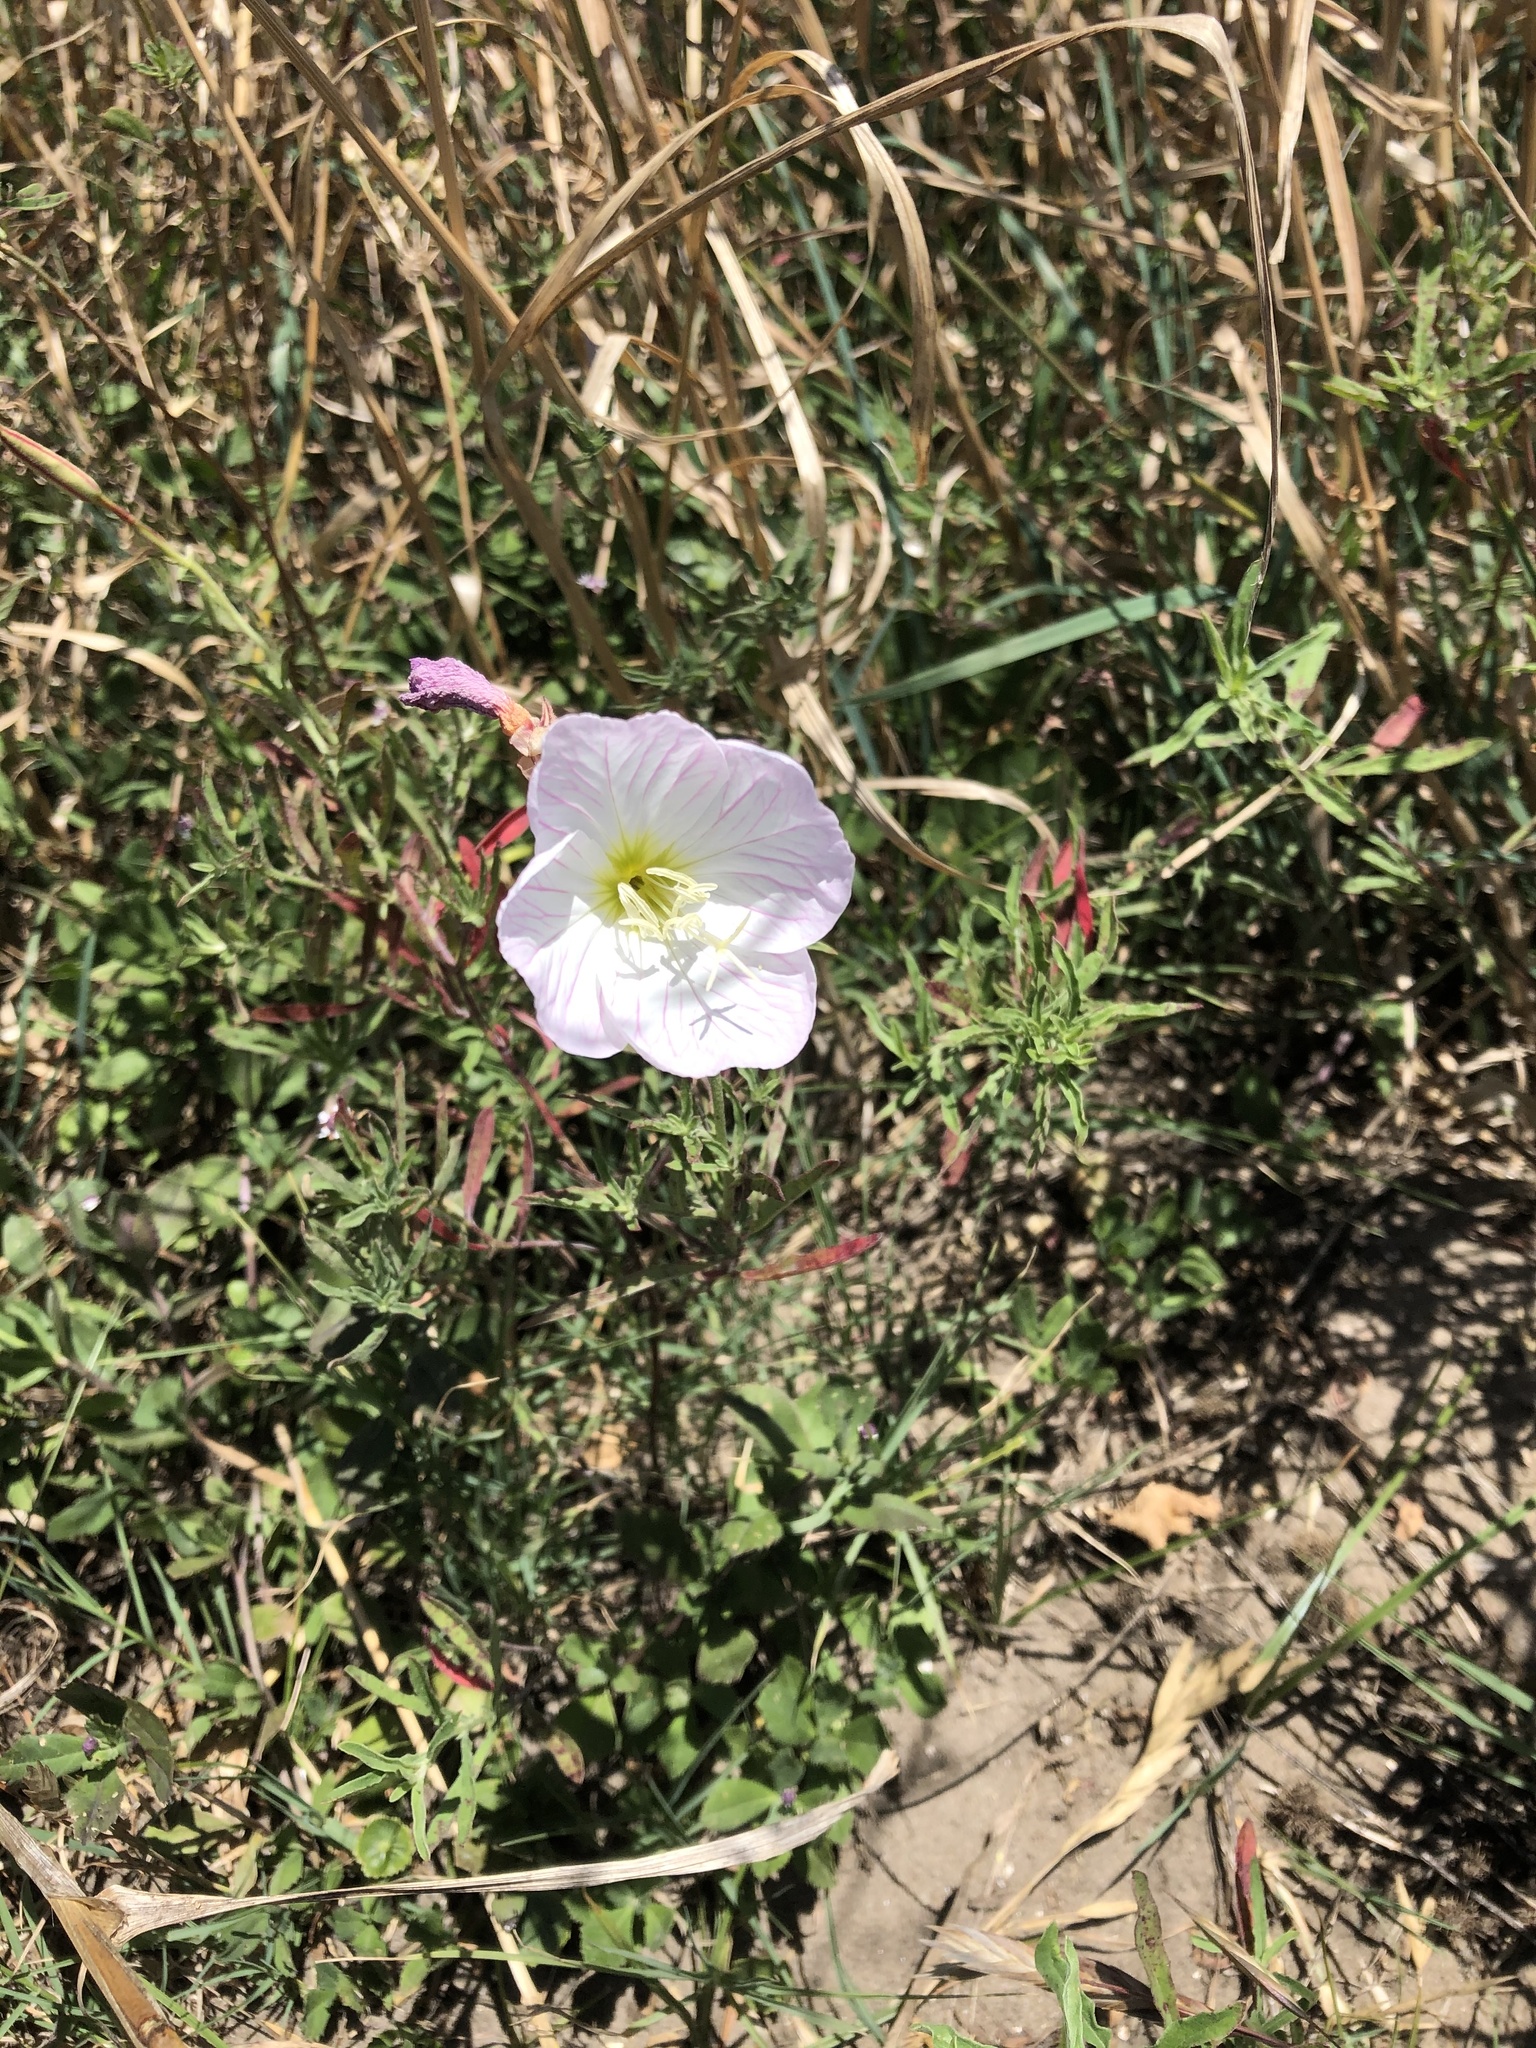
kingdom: Plantae
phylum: Tracheophyta
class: Magnoliopsida
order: Myrtales
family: Onagraceae
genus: Oenothera
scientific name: Oenothera speciosa
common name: White evening-primrose
